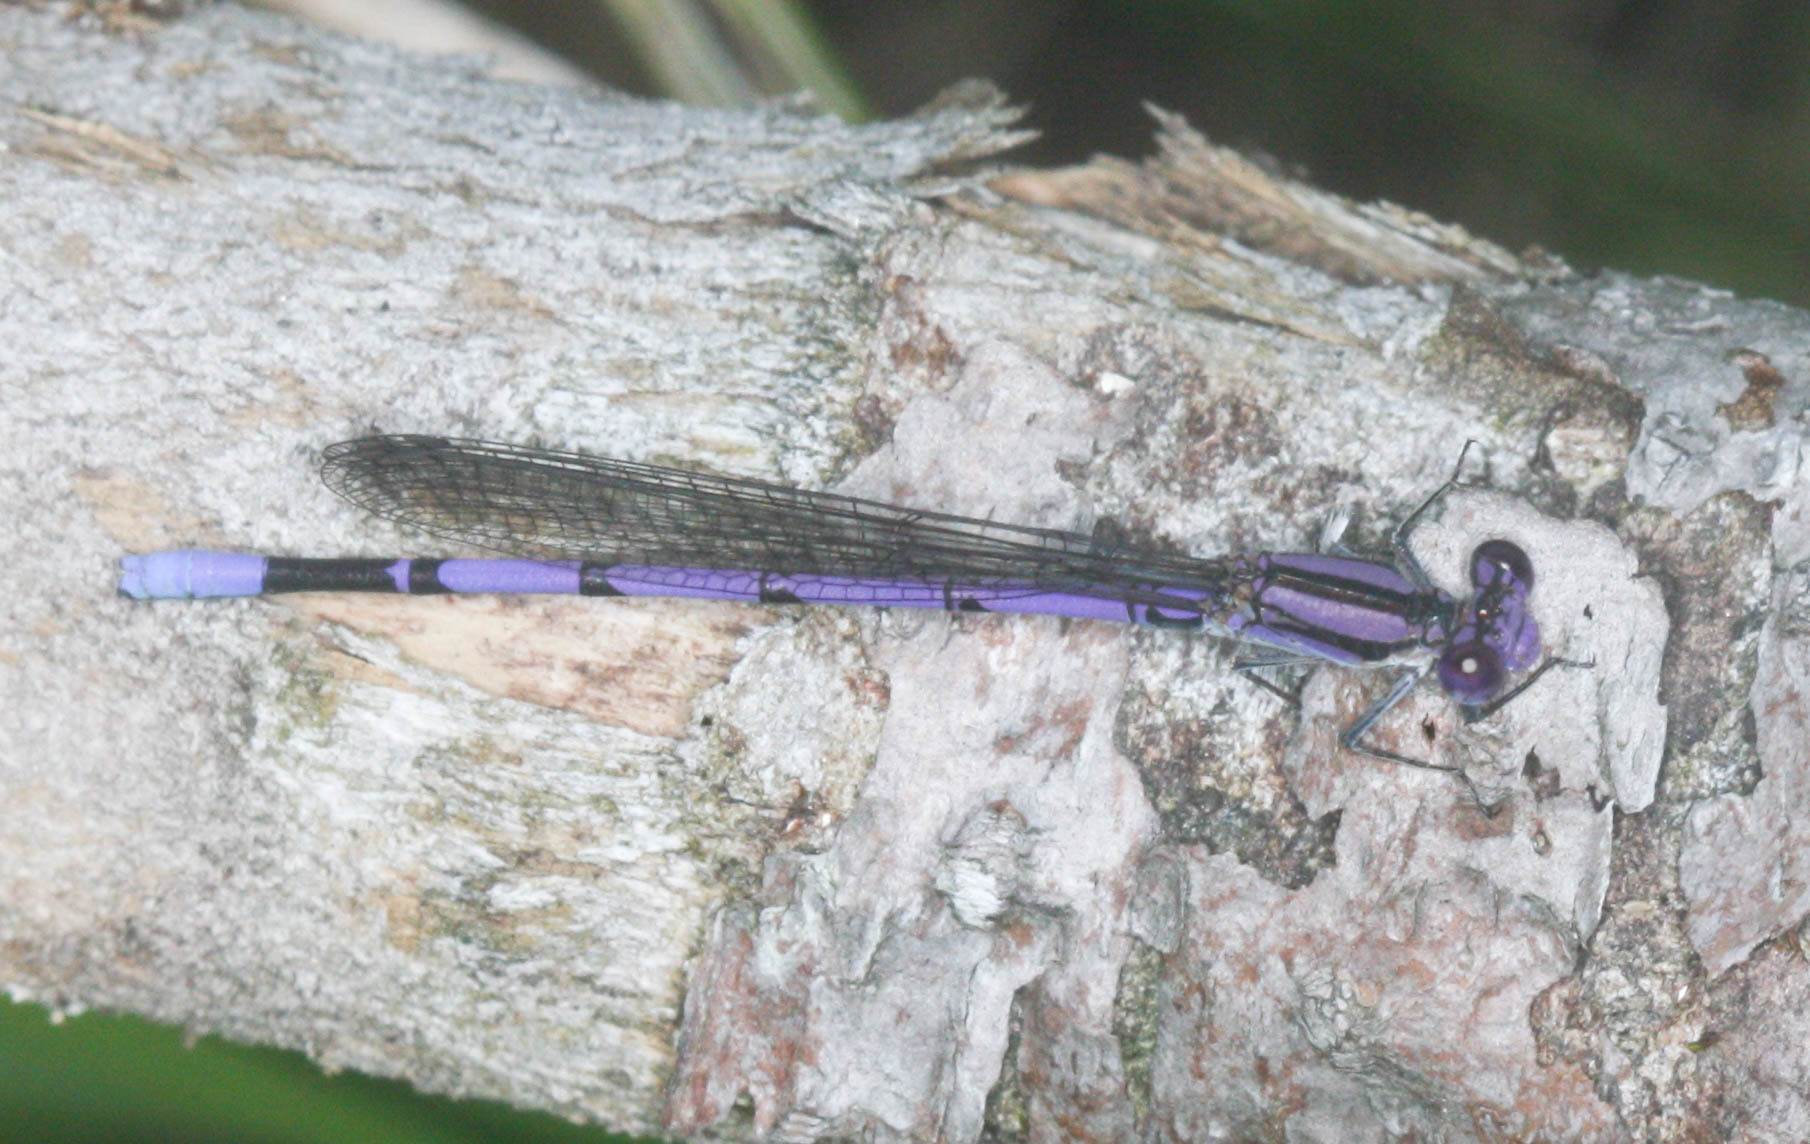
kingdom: Animalia
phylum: Arthropoda
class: Insecta
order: Odonata
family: Coenagrionidae
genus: Argia
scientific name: Argia fumipennis
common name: Variable dancer
